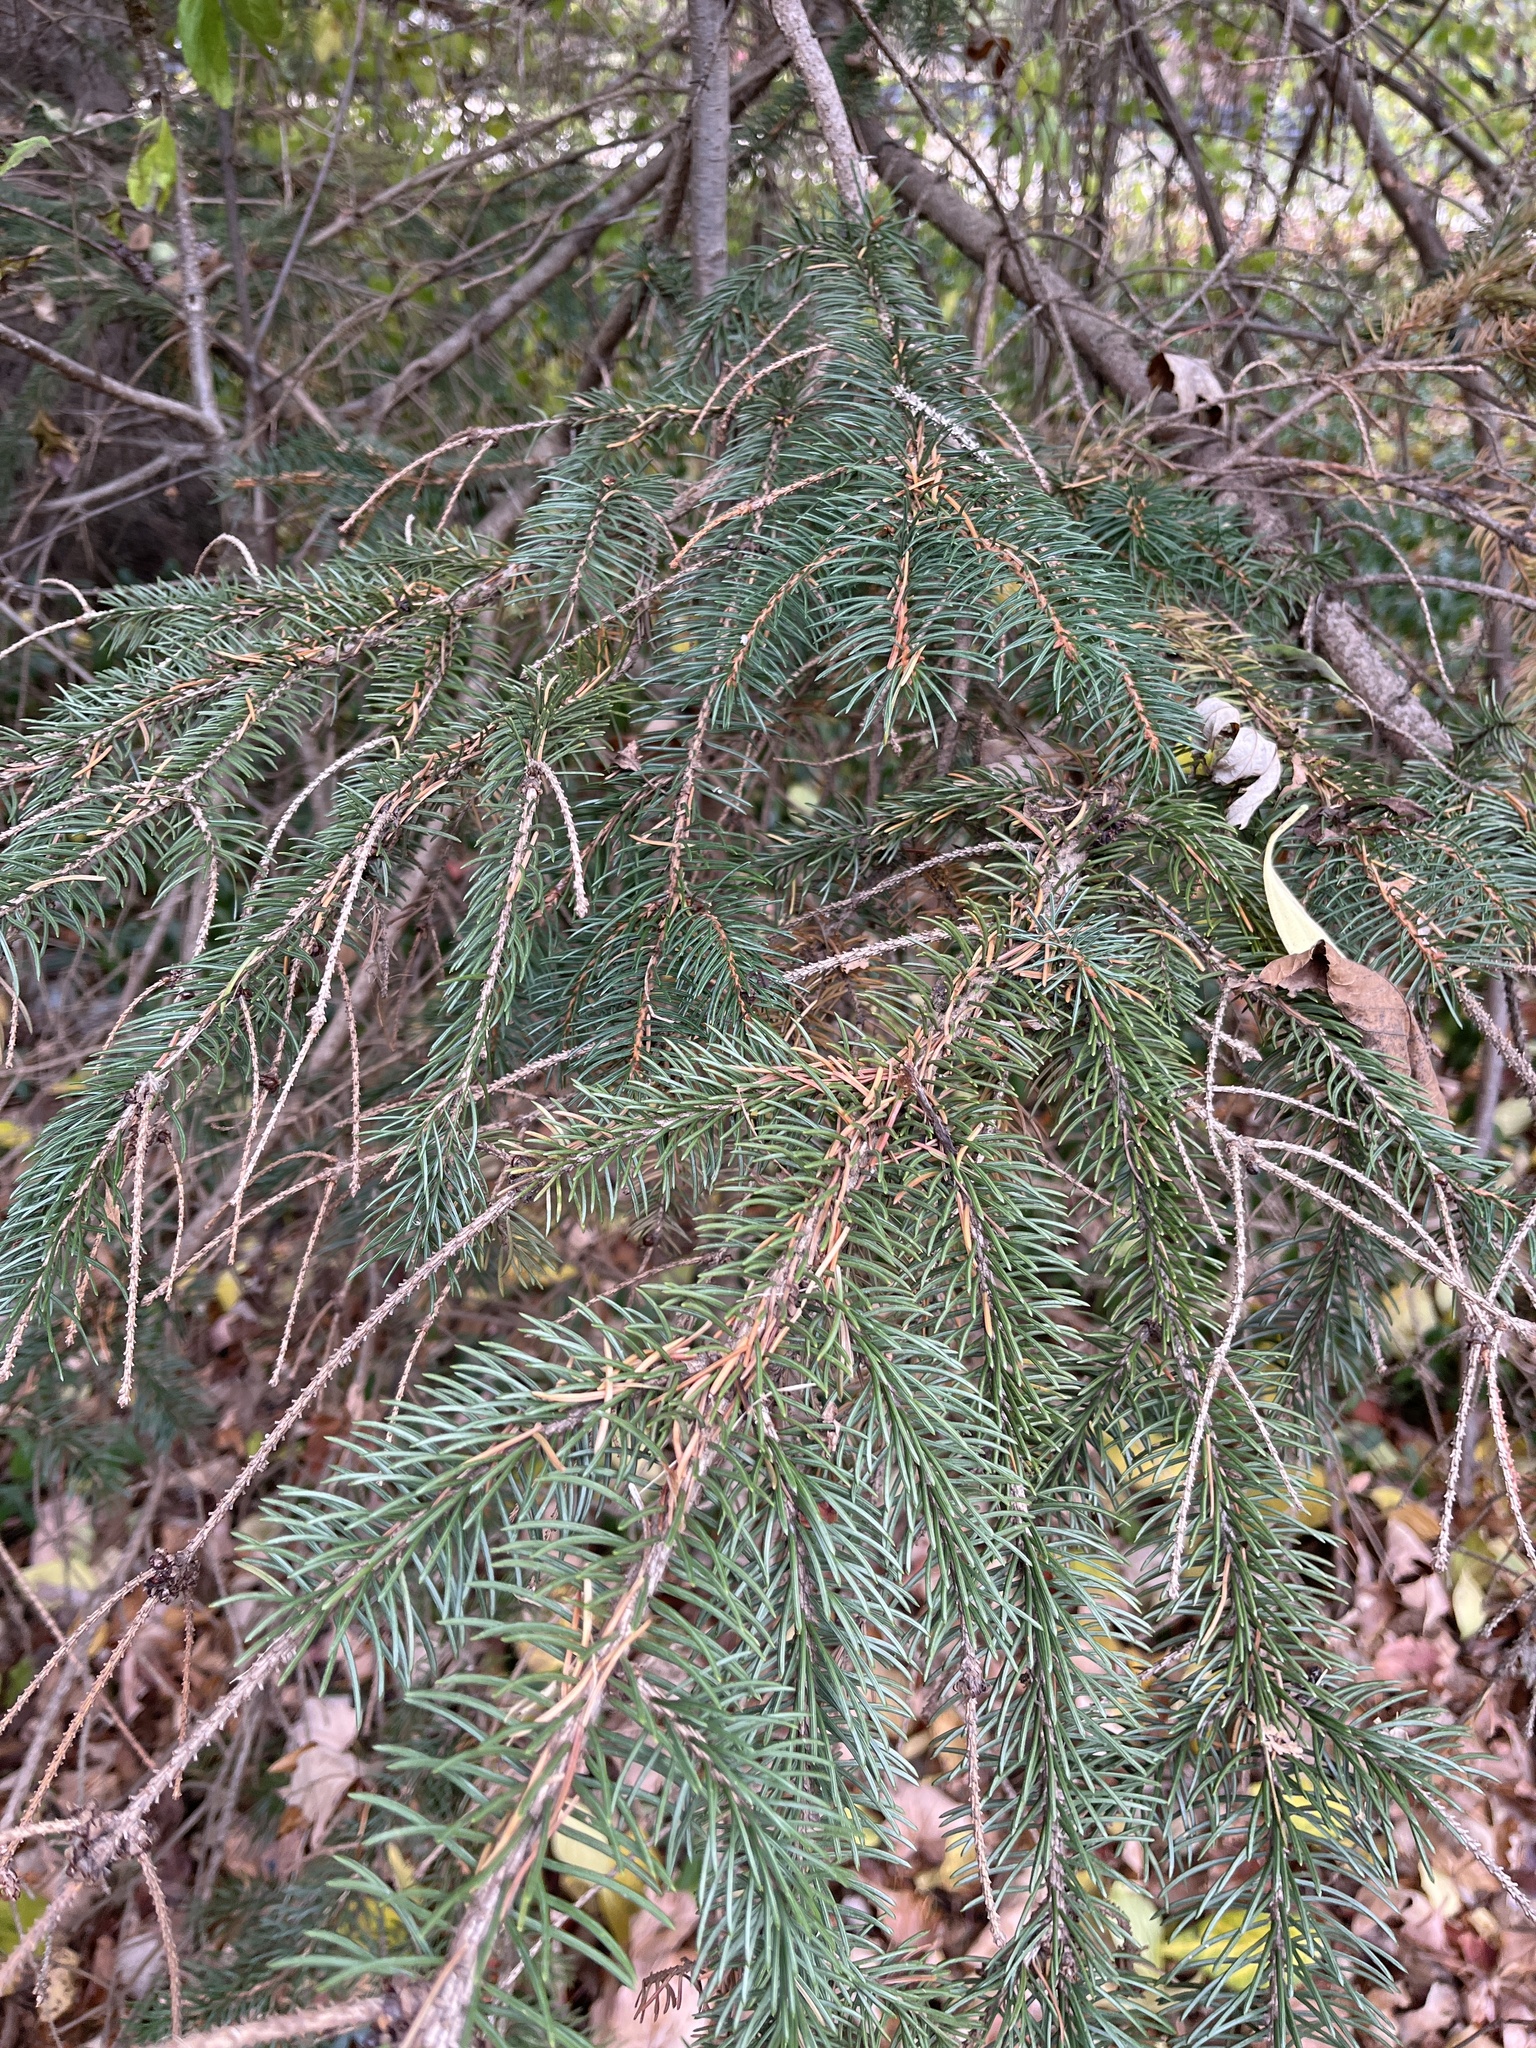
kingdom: Plantae
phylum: Tracheophyta
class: Pinopsida
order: Pinales
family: Pinaceae
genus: Picea
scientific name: Picea glauca
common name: White spruce
